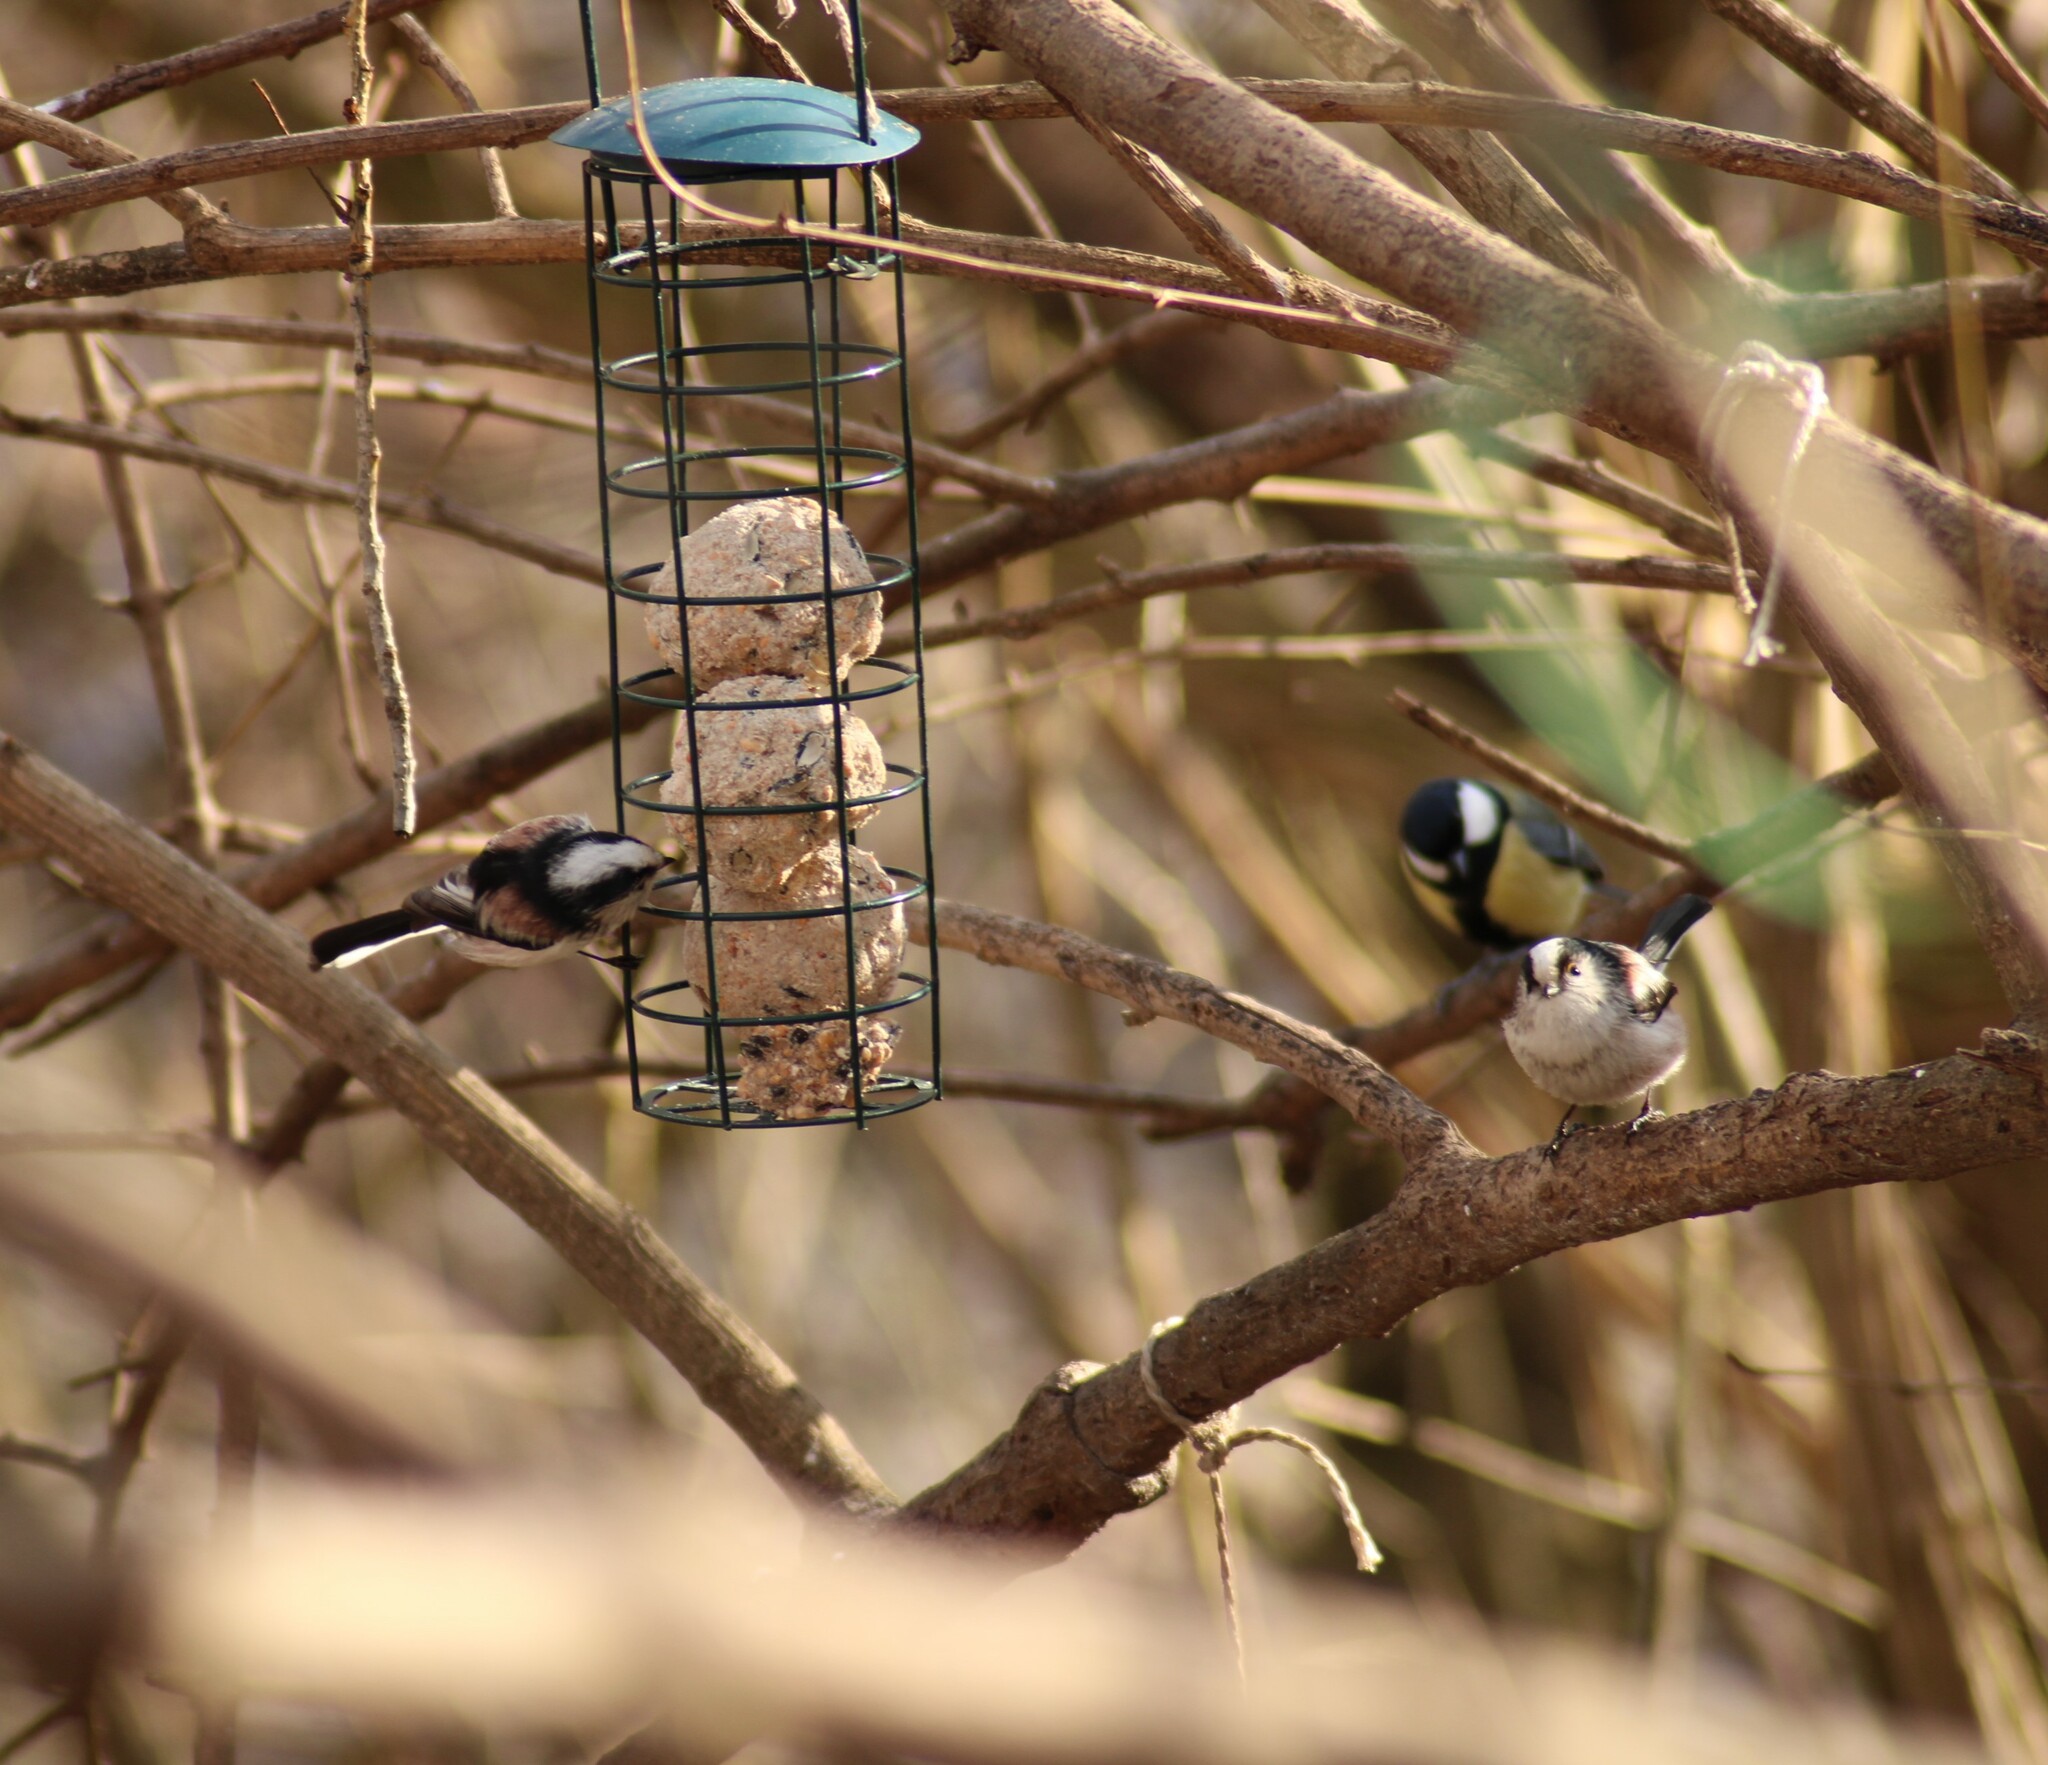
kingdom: Animalia
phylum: Chordata
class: Aves
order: Passeriformes
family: Aegithalidae
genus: Aegithalos
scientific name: Aegithalos caudatus
